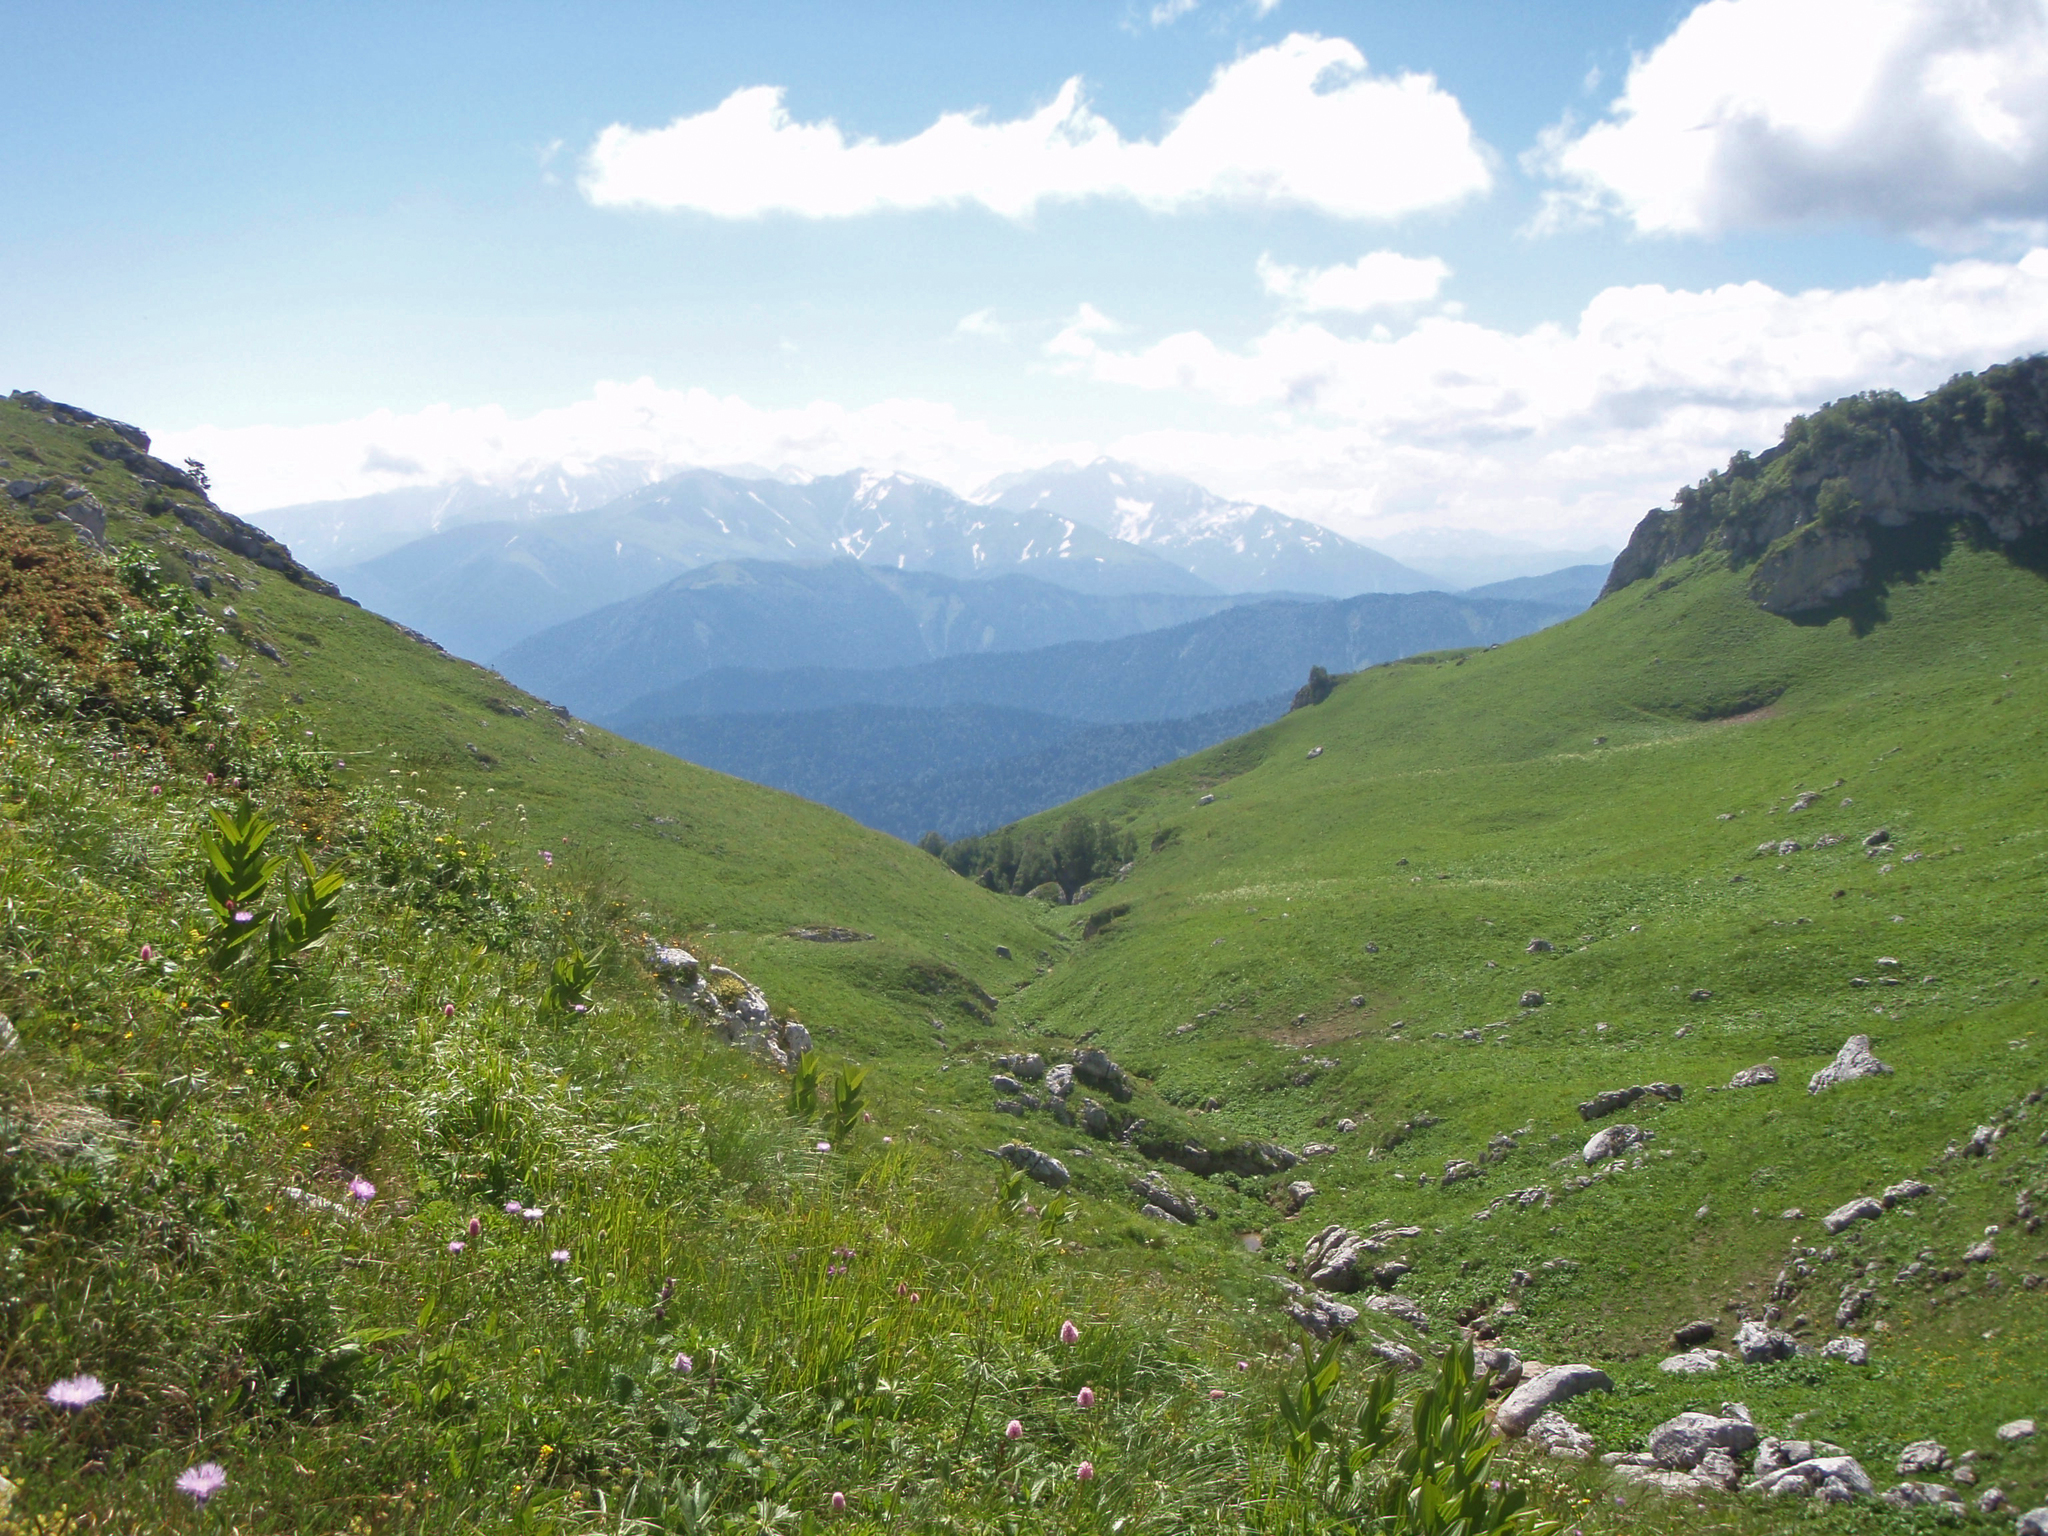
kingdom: Plantae
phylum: Tracheophyta
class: Liliopsida
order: Liliales
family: Melanthiaceae
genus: Veratrum
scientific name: Veratrum lobelianum
